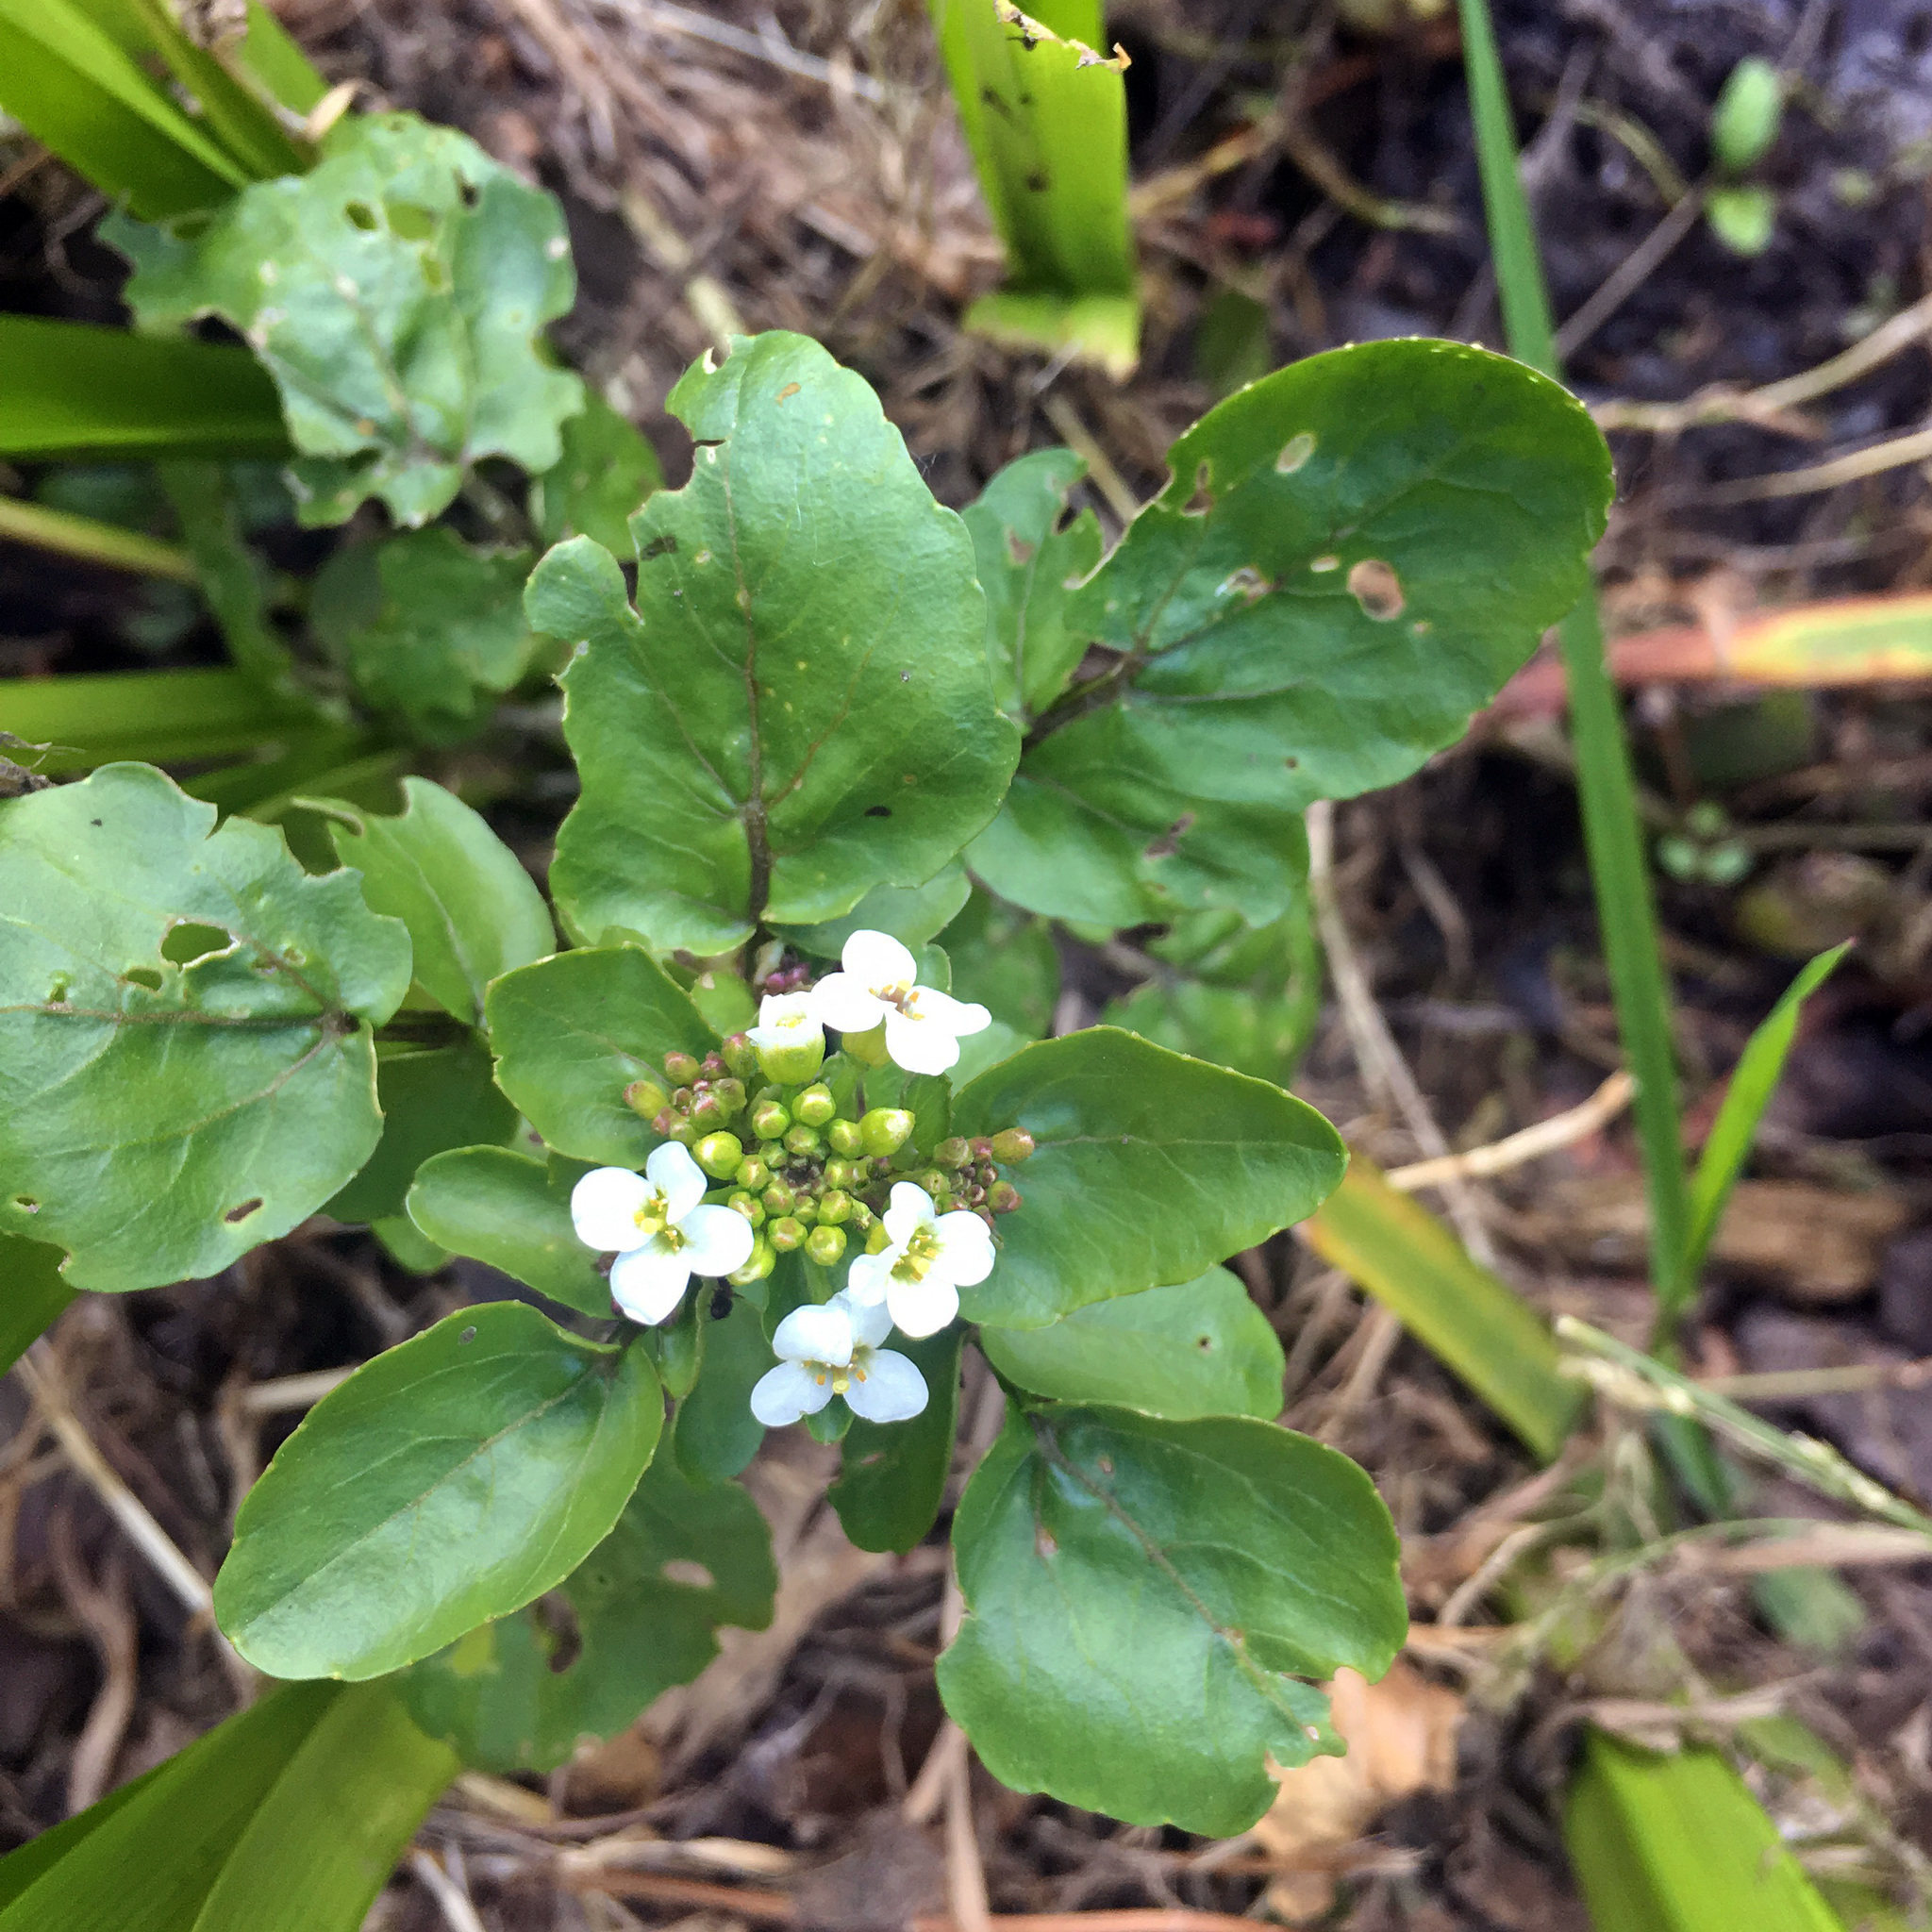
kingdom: Plantae
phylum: Tracheophyta
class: Magnoliopsida
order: Brassicales
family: Brassicaceae
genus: Nasturtium
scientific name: Nasturtium officinale
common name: Watercress
